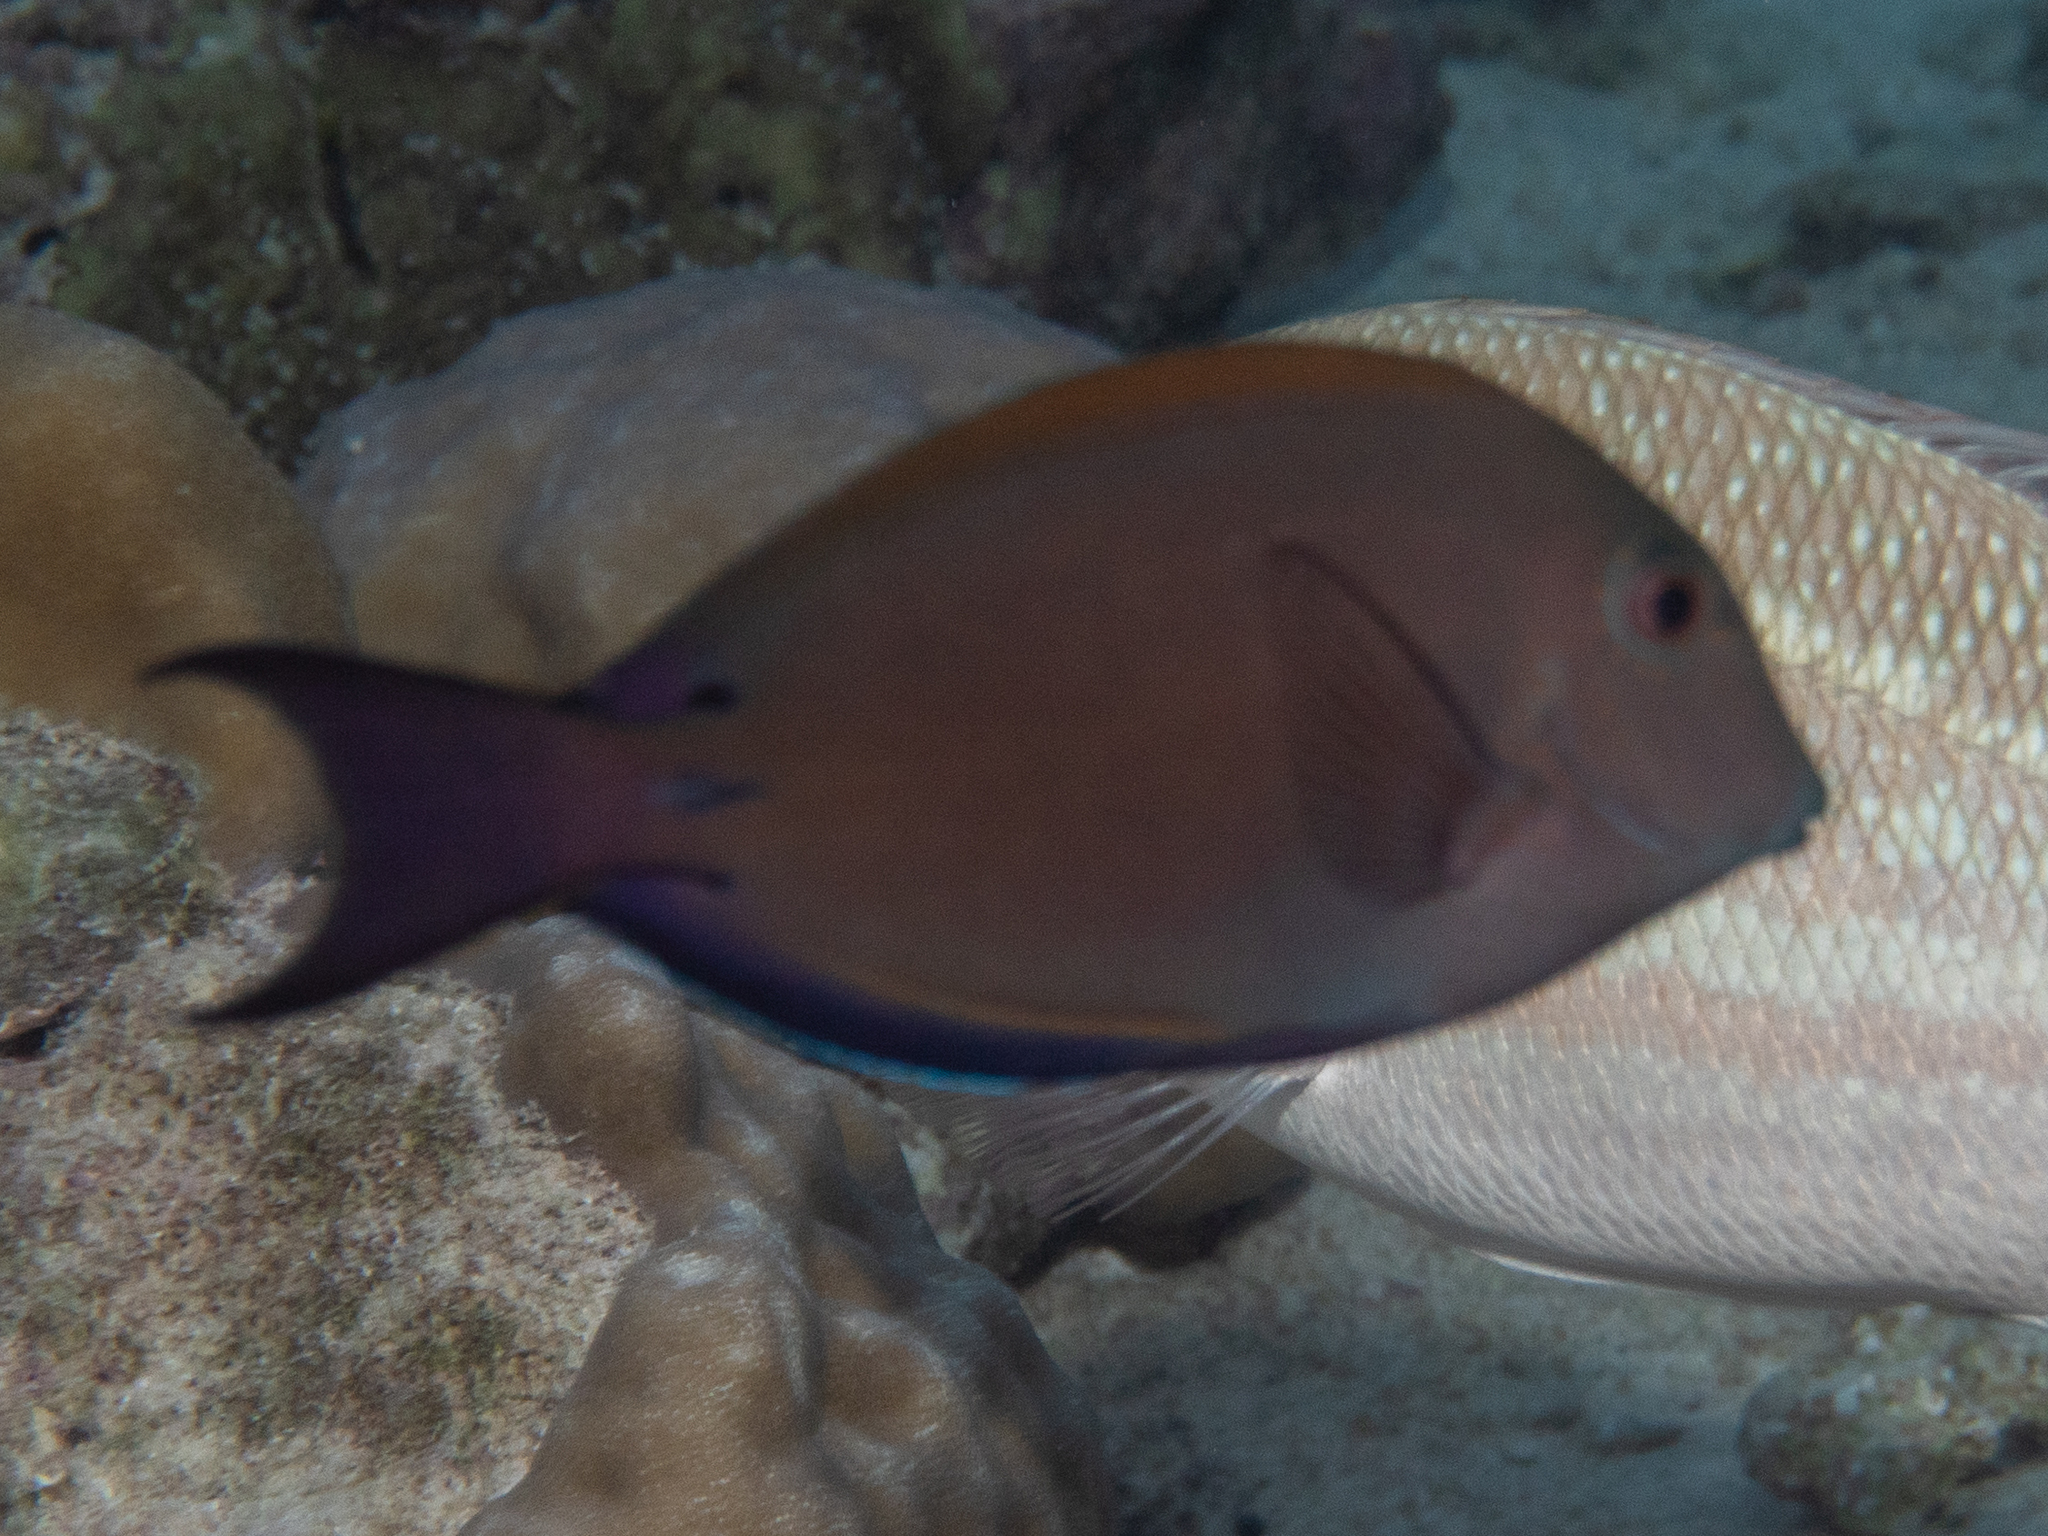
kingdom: Animalia
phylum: Chordata
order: Perciformes
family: Acanthuridae
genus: Acanthurus
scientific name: Acanthurus nigrofuscus
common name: Blackspot surgeonfish
